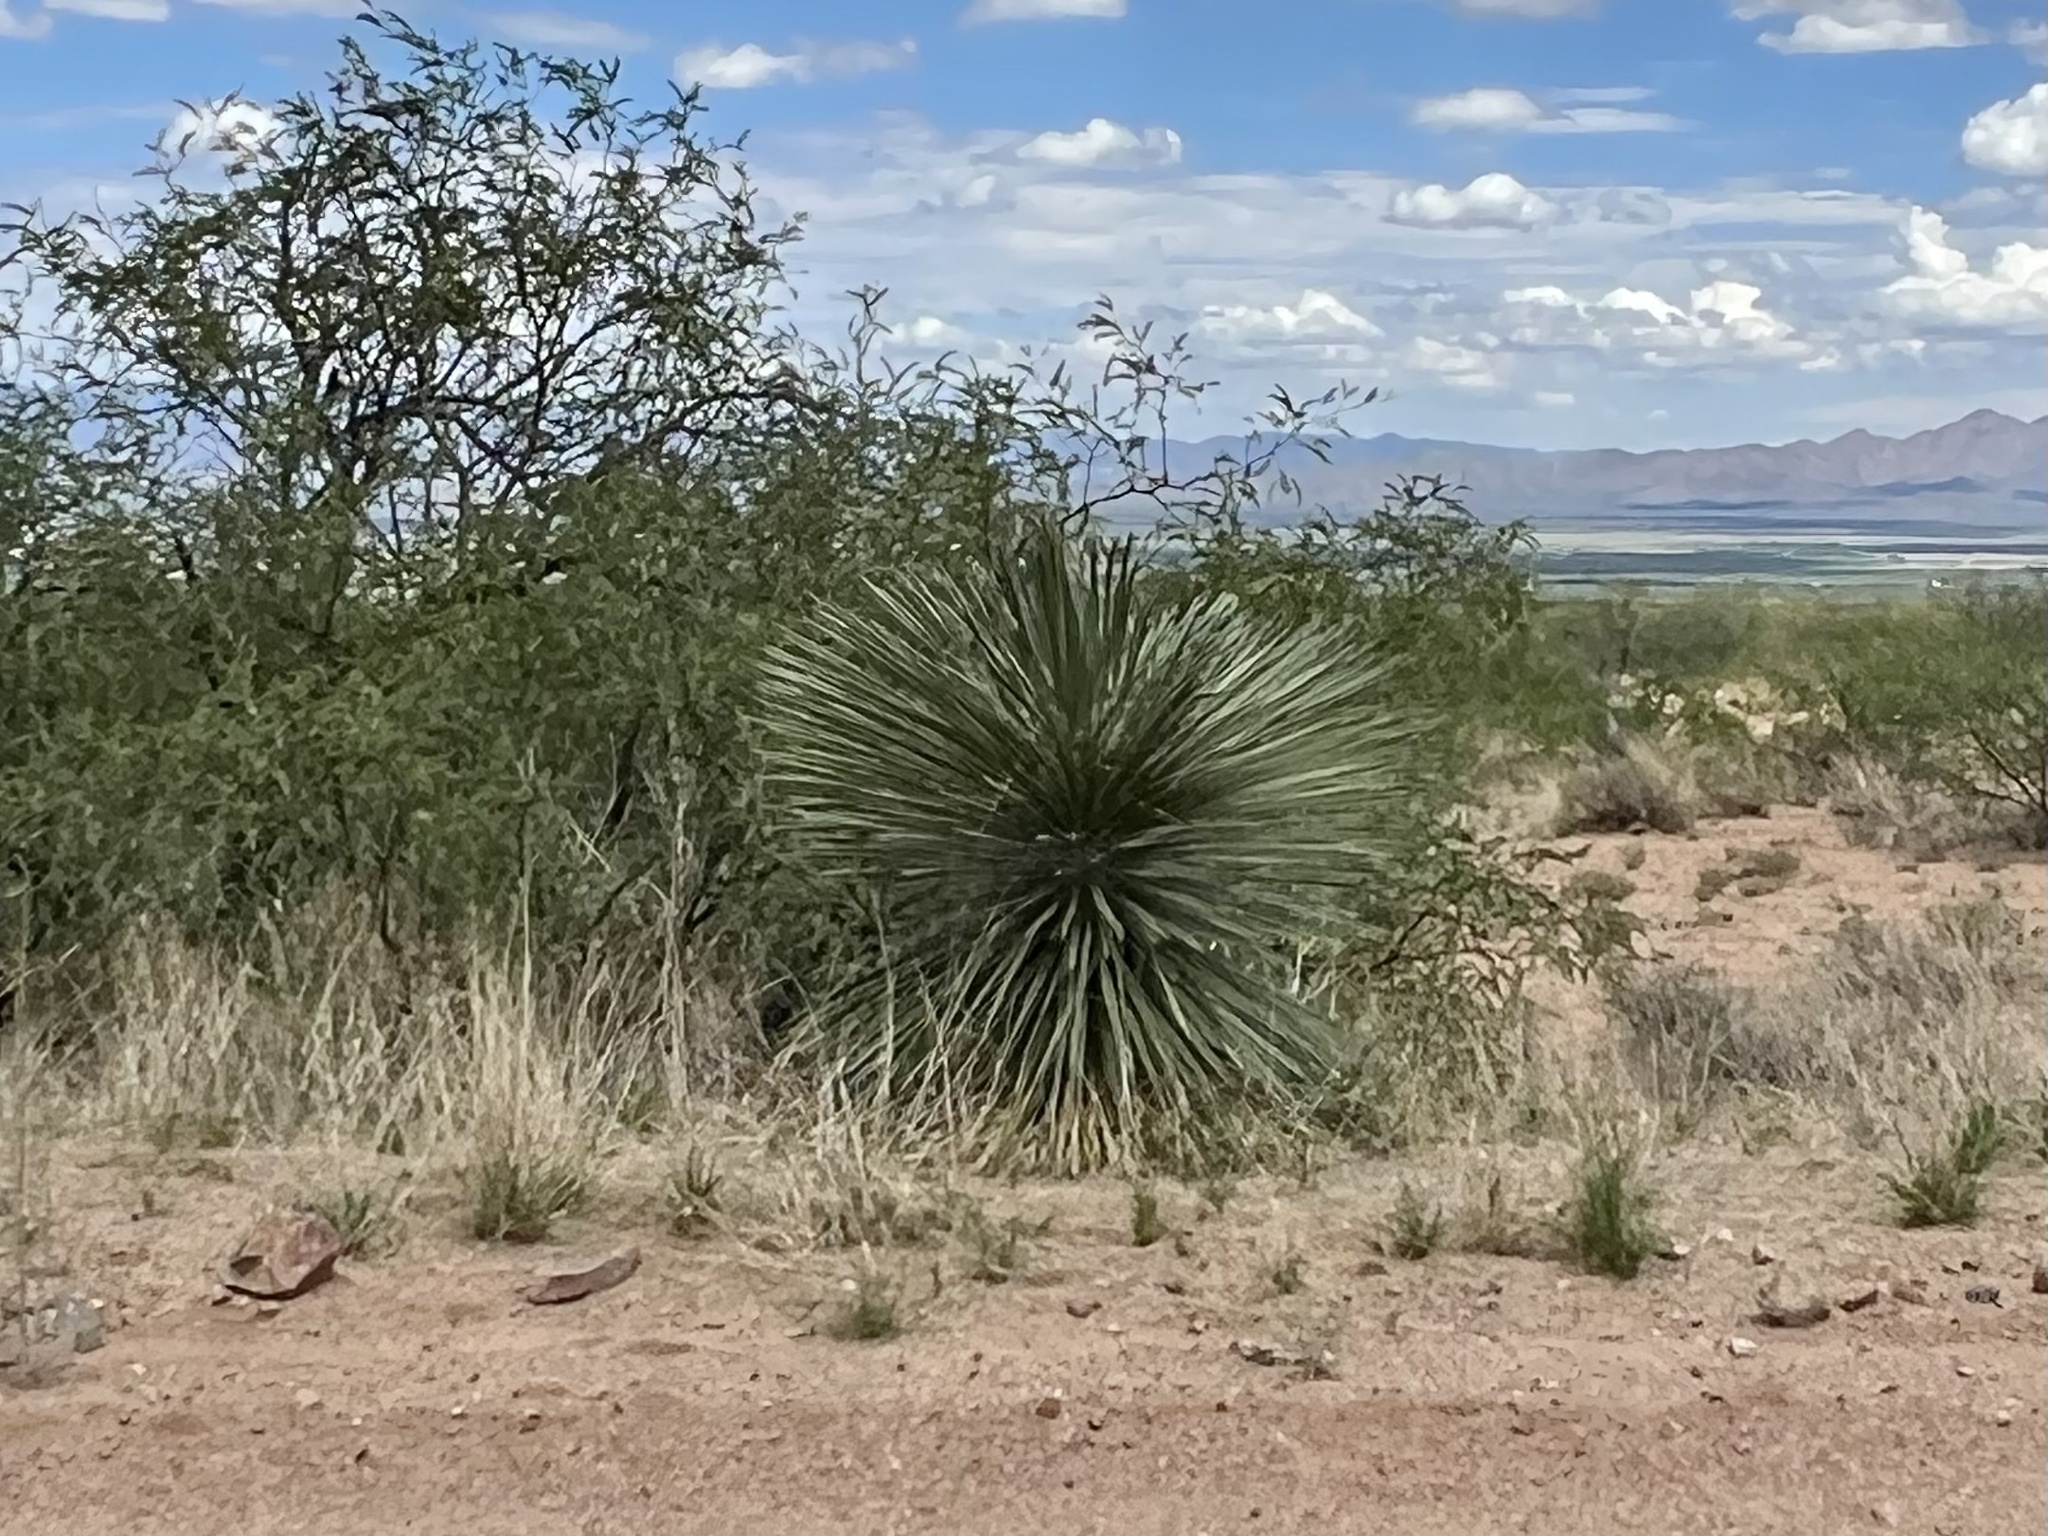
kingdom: Plantae
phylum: Tracheophyta
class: Liliopsida
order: Asparagales
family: Asparagaceae
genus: Yucca
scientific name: Yucca elata
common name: Palmella
